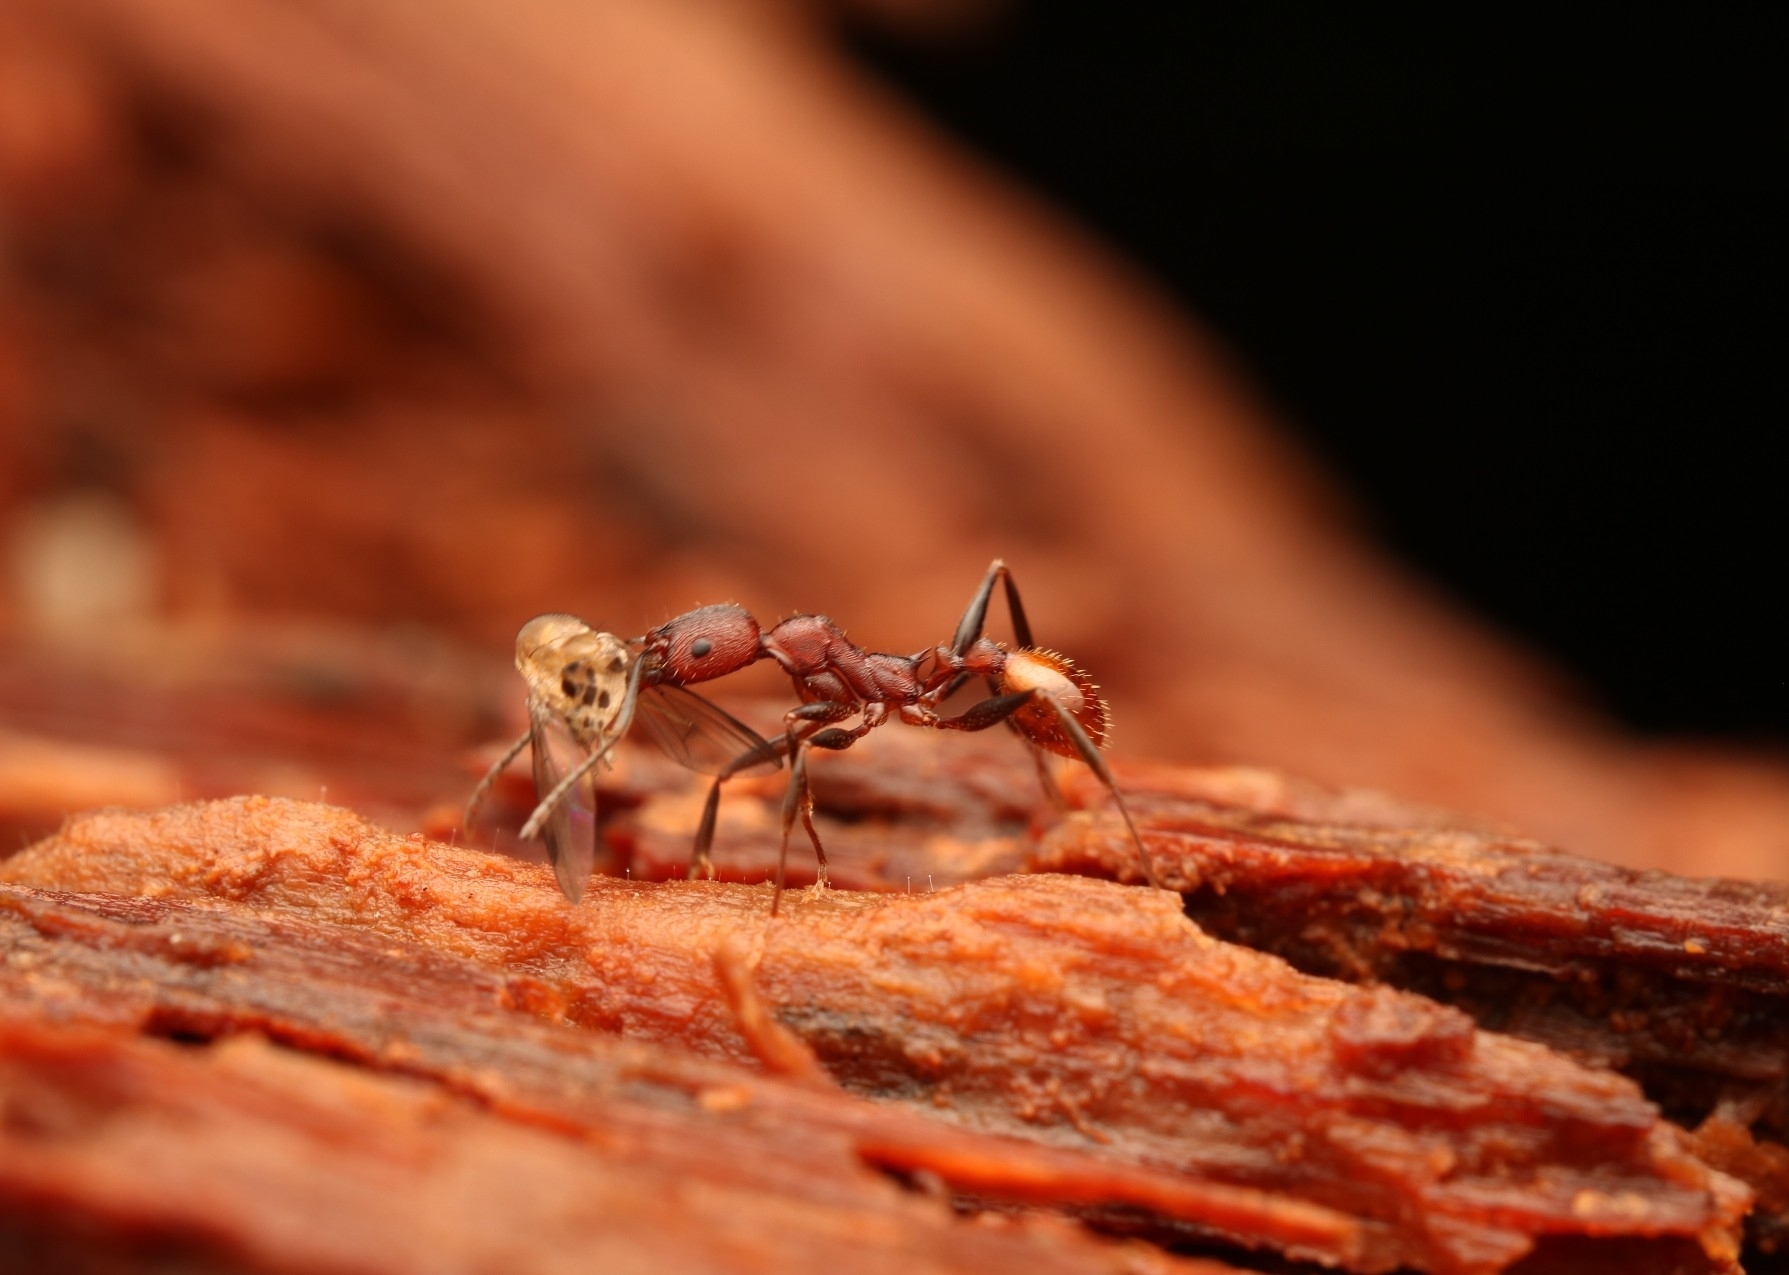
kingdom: Animalia
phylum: Arthropoda
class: Insecta
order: Hymenoptera
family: Formicidae
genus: Aphaenogaster
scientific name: Aphaenogaster lamellidens
